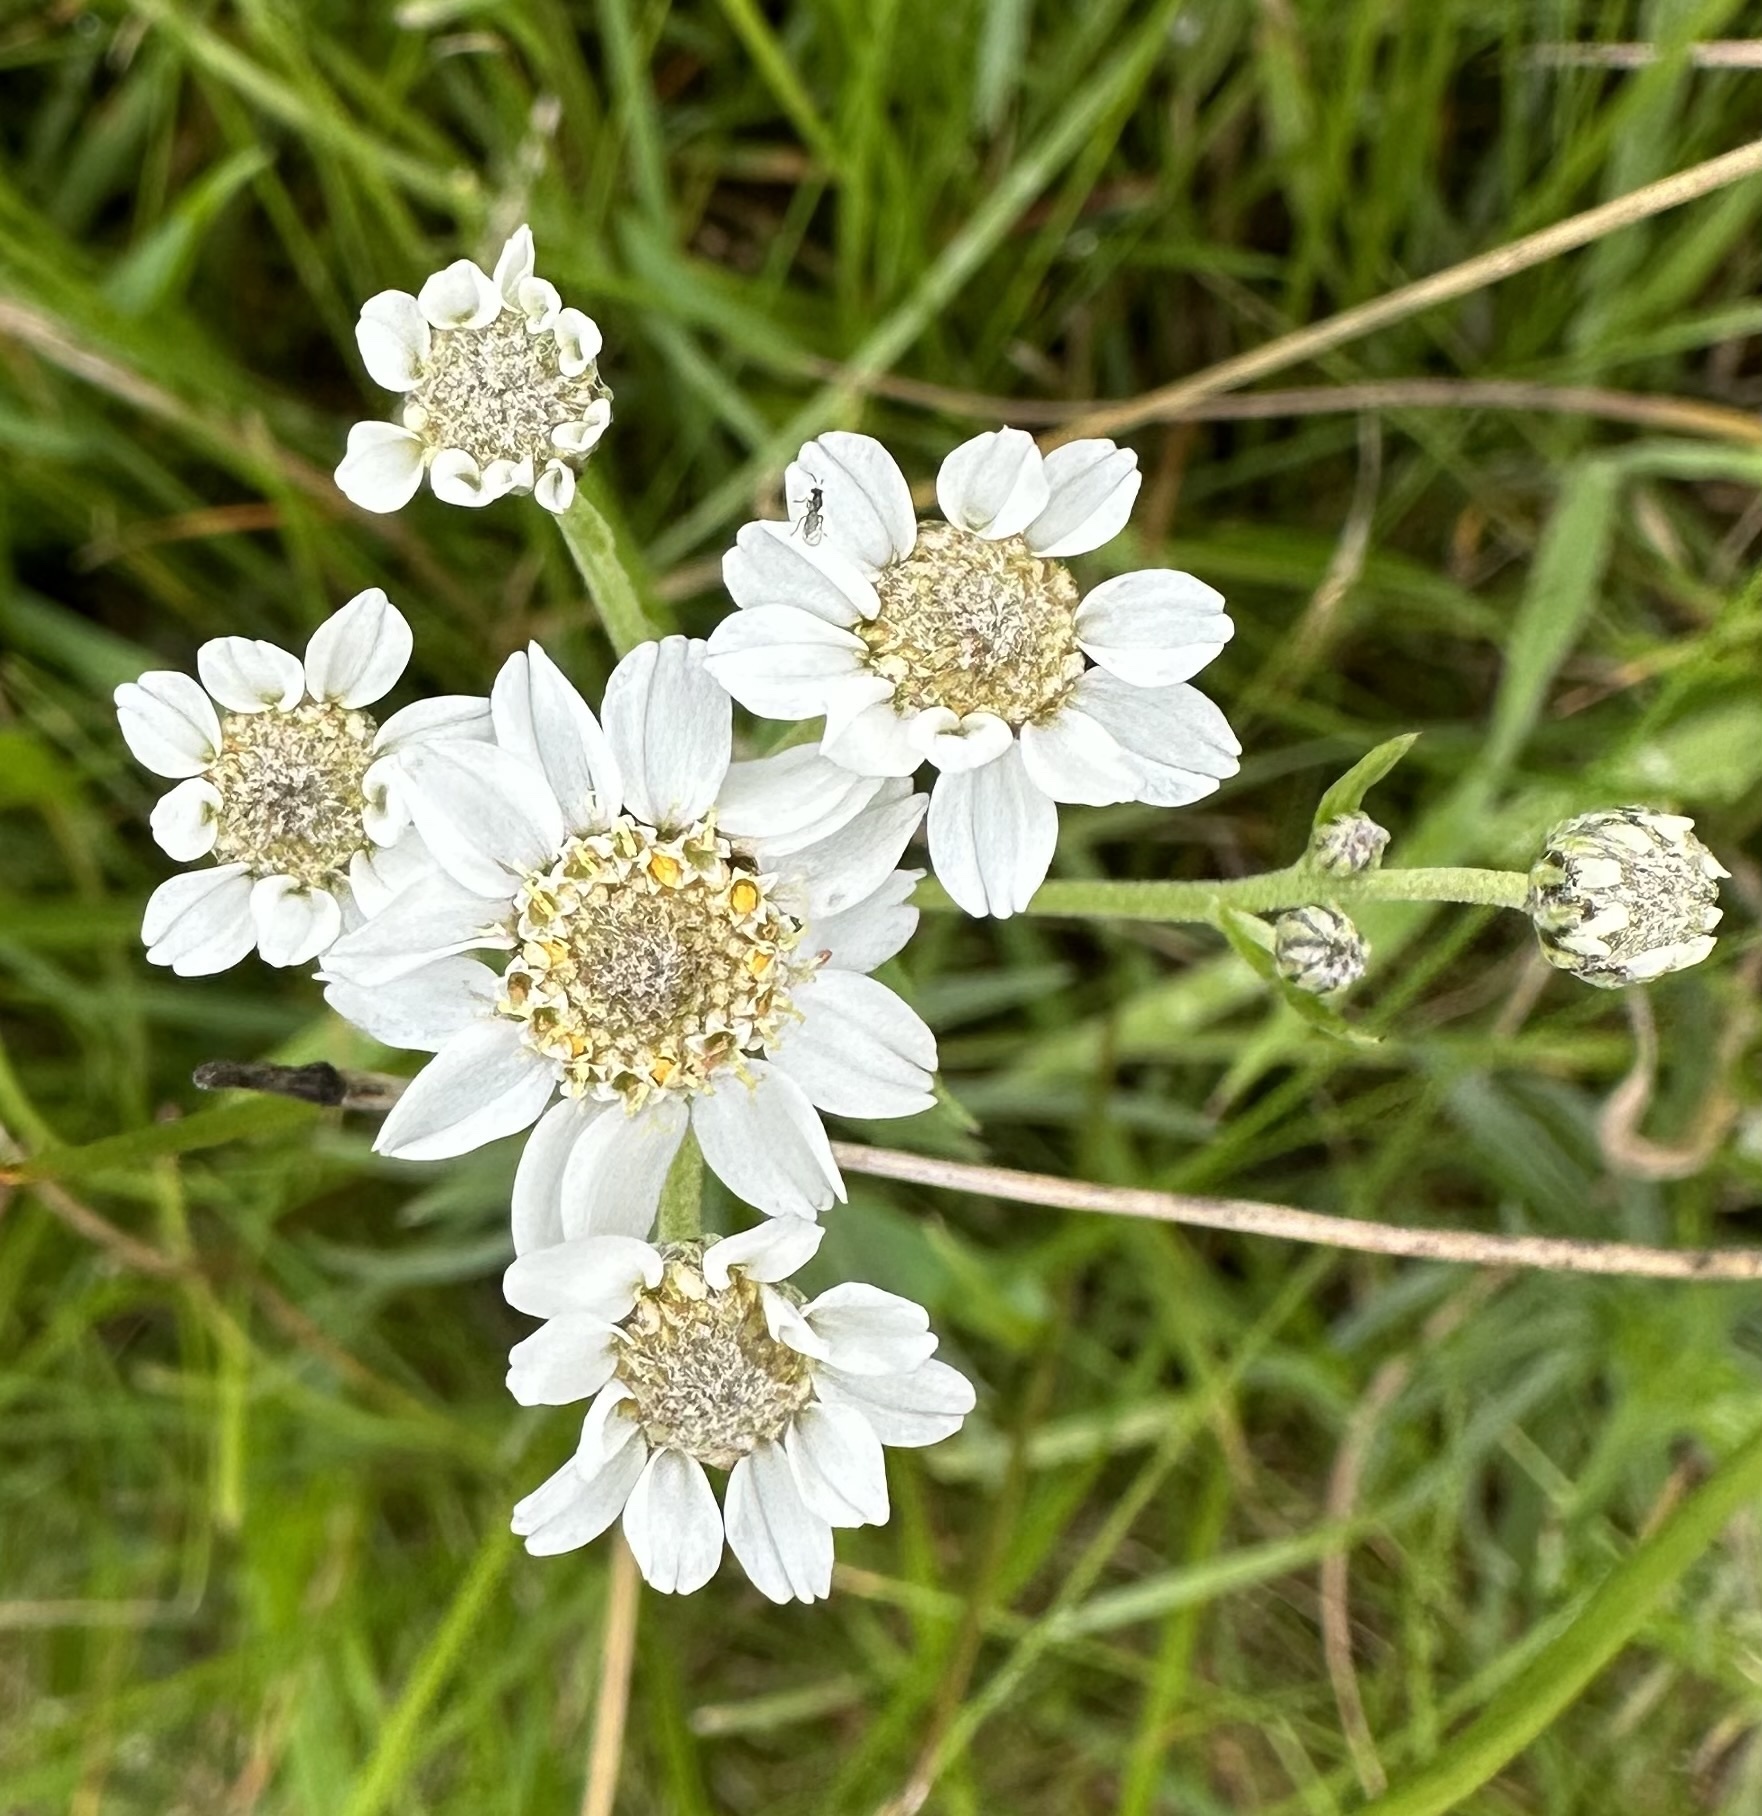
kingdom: Plantae
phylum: Tracheophyta
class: Magnoliopsida
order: Asterales
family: Asteraceae
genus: Achillea
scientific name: Achillea ptarmica
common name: Sneezeweed
